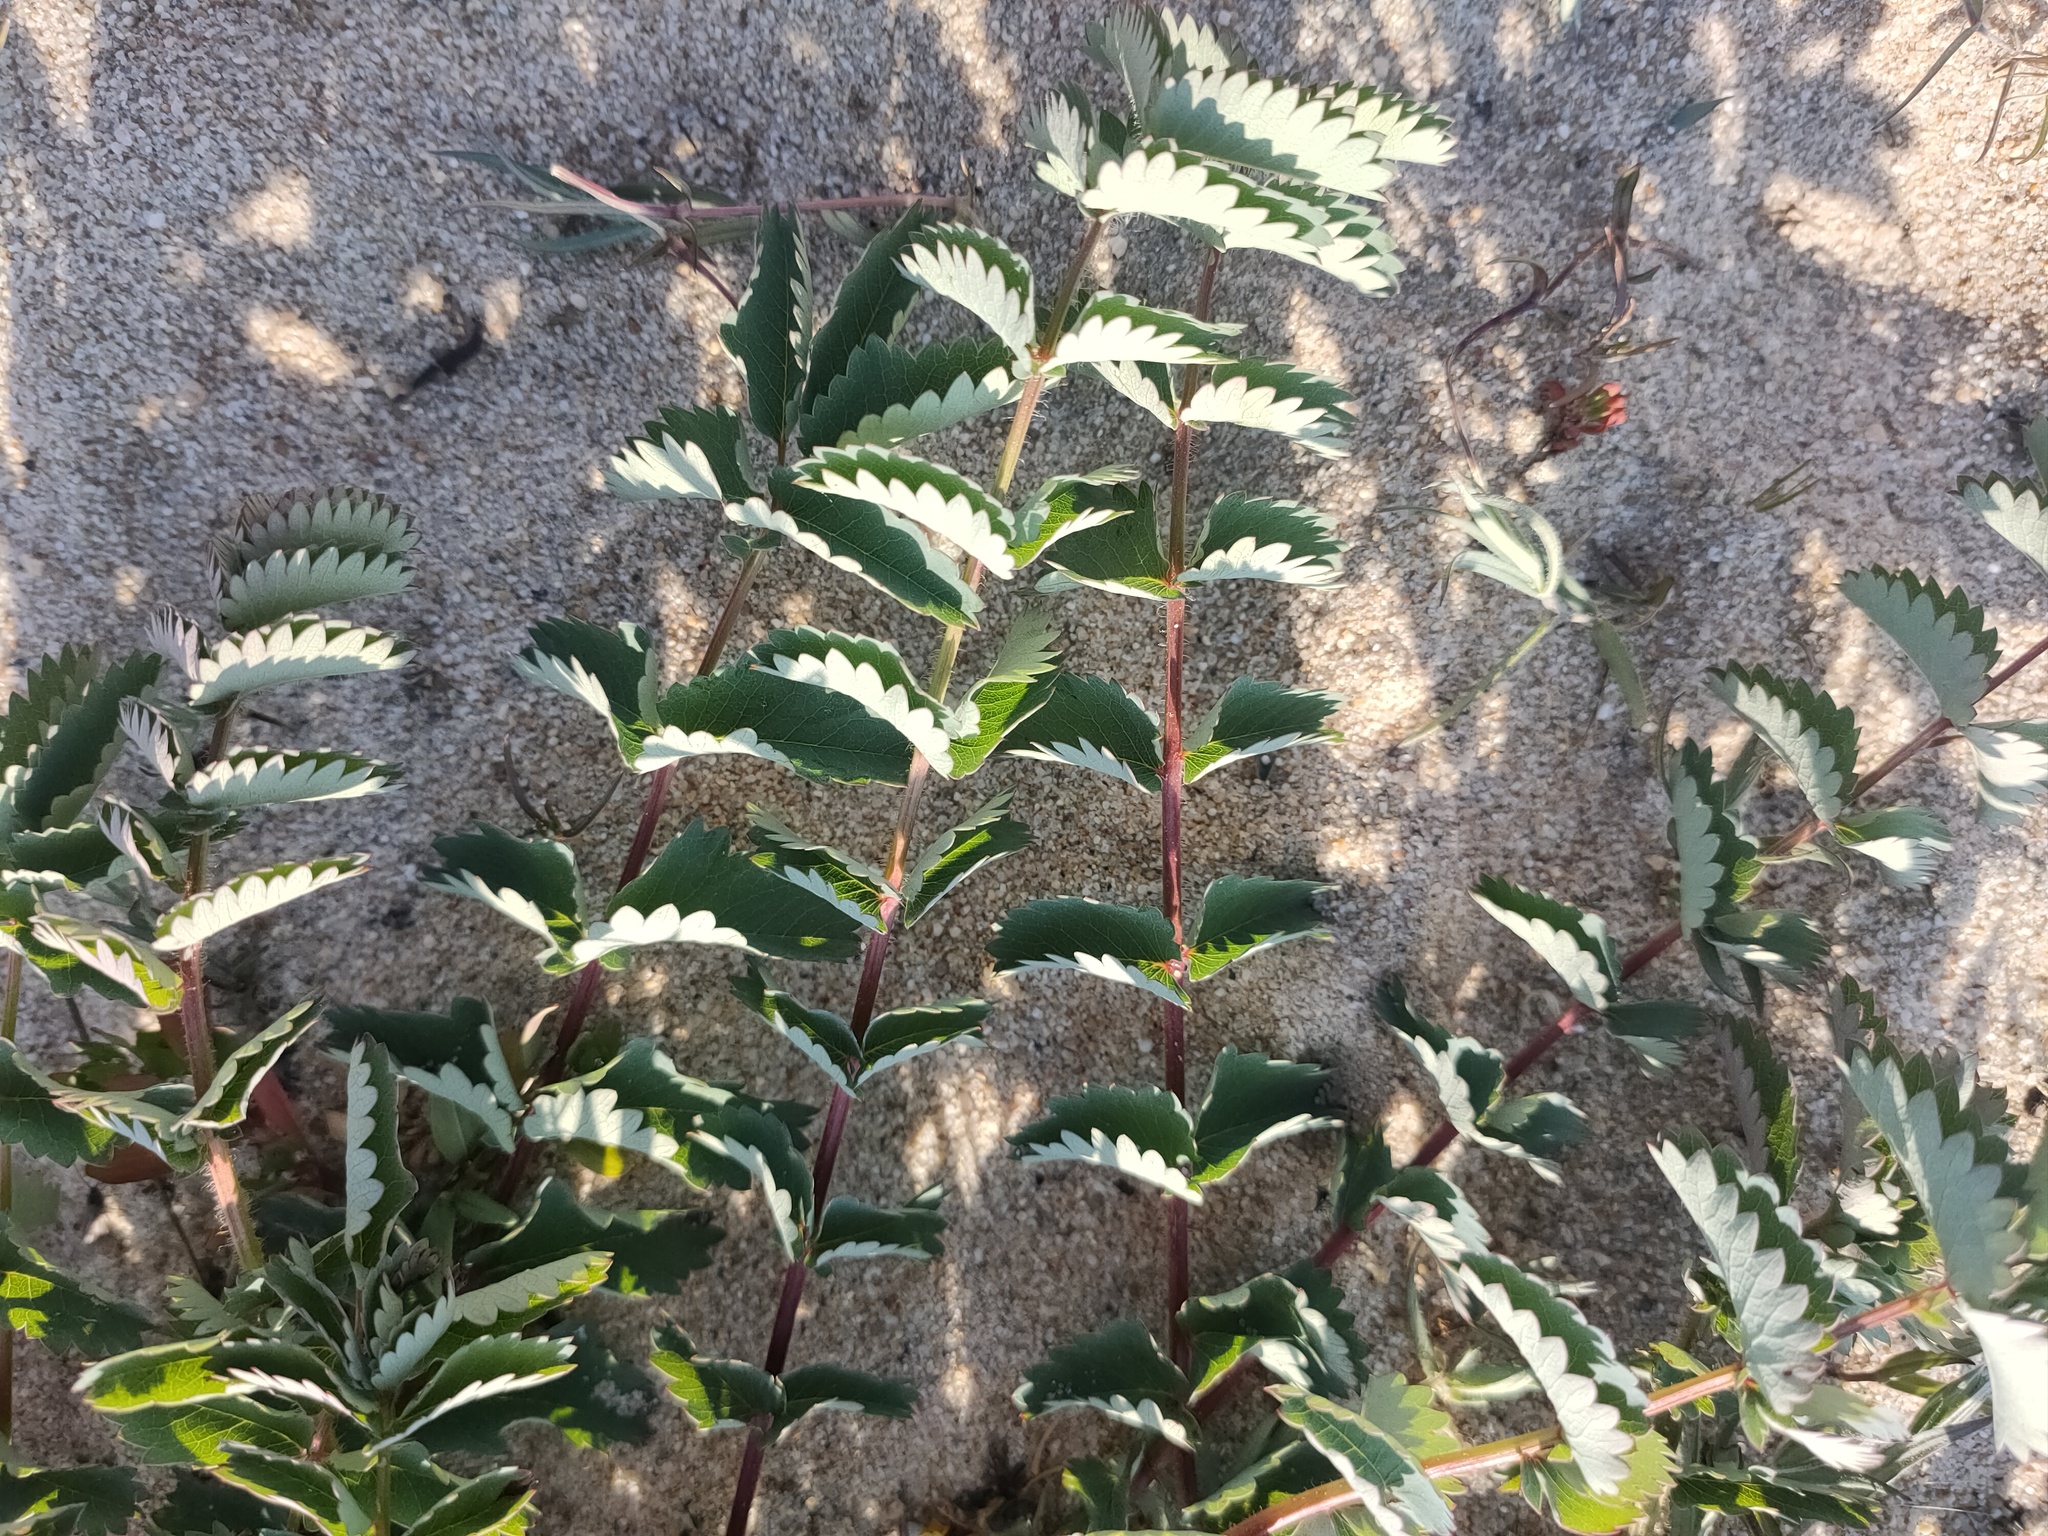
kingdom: Plantae
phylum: Tracheophyta
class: Magnoliopsida
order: Rosales
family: Rosaceae
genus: Sanguisorba
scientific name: Sanguisorba officinalis
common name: Great burnet
